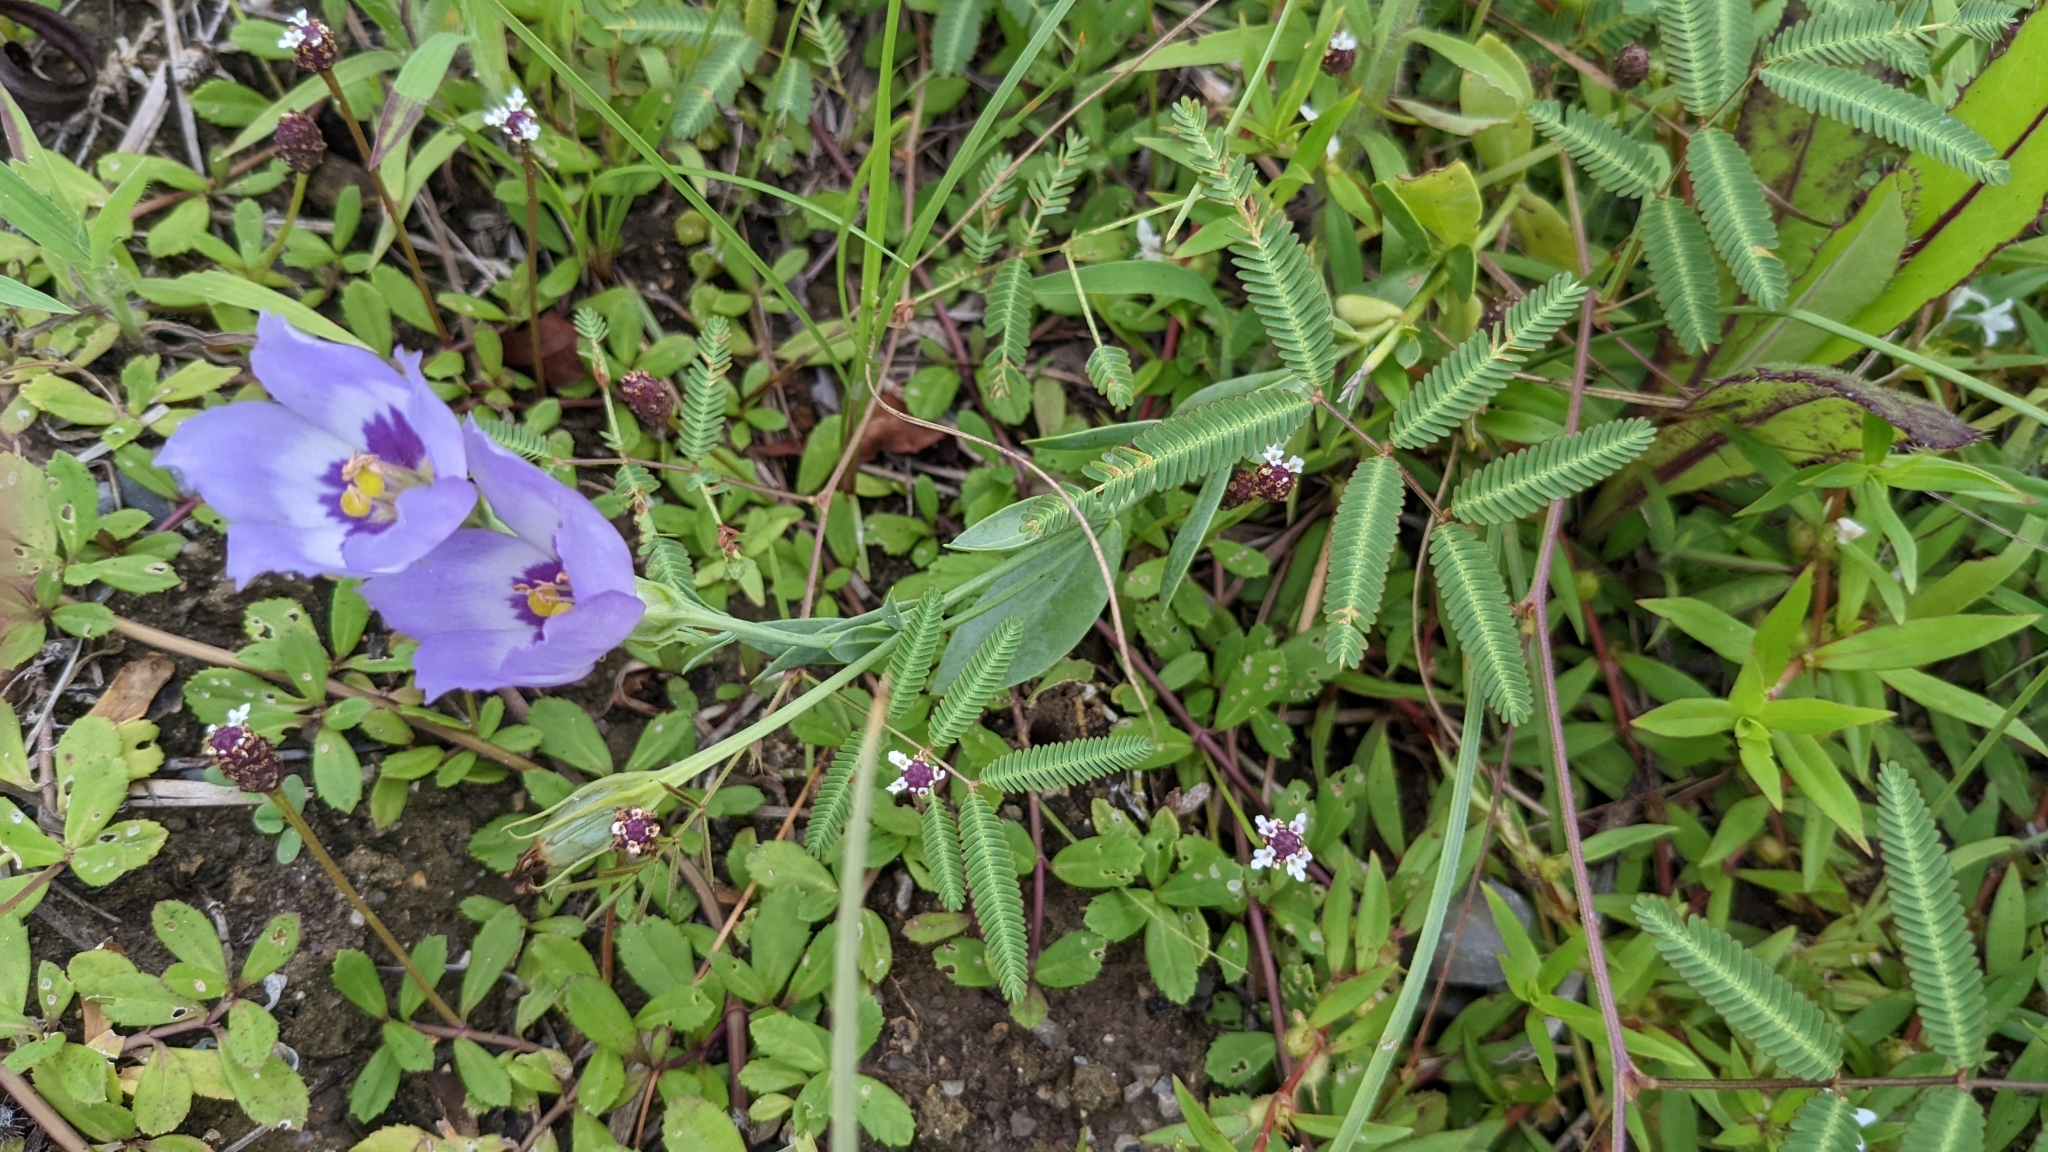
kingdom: Plantae
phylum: Tracheophyta
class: Magnoliopsida
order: Gentianales
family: Gentianaceae
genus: Eustoma
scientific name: Eustoma exaltatum
